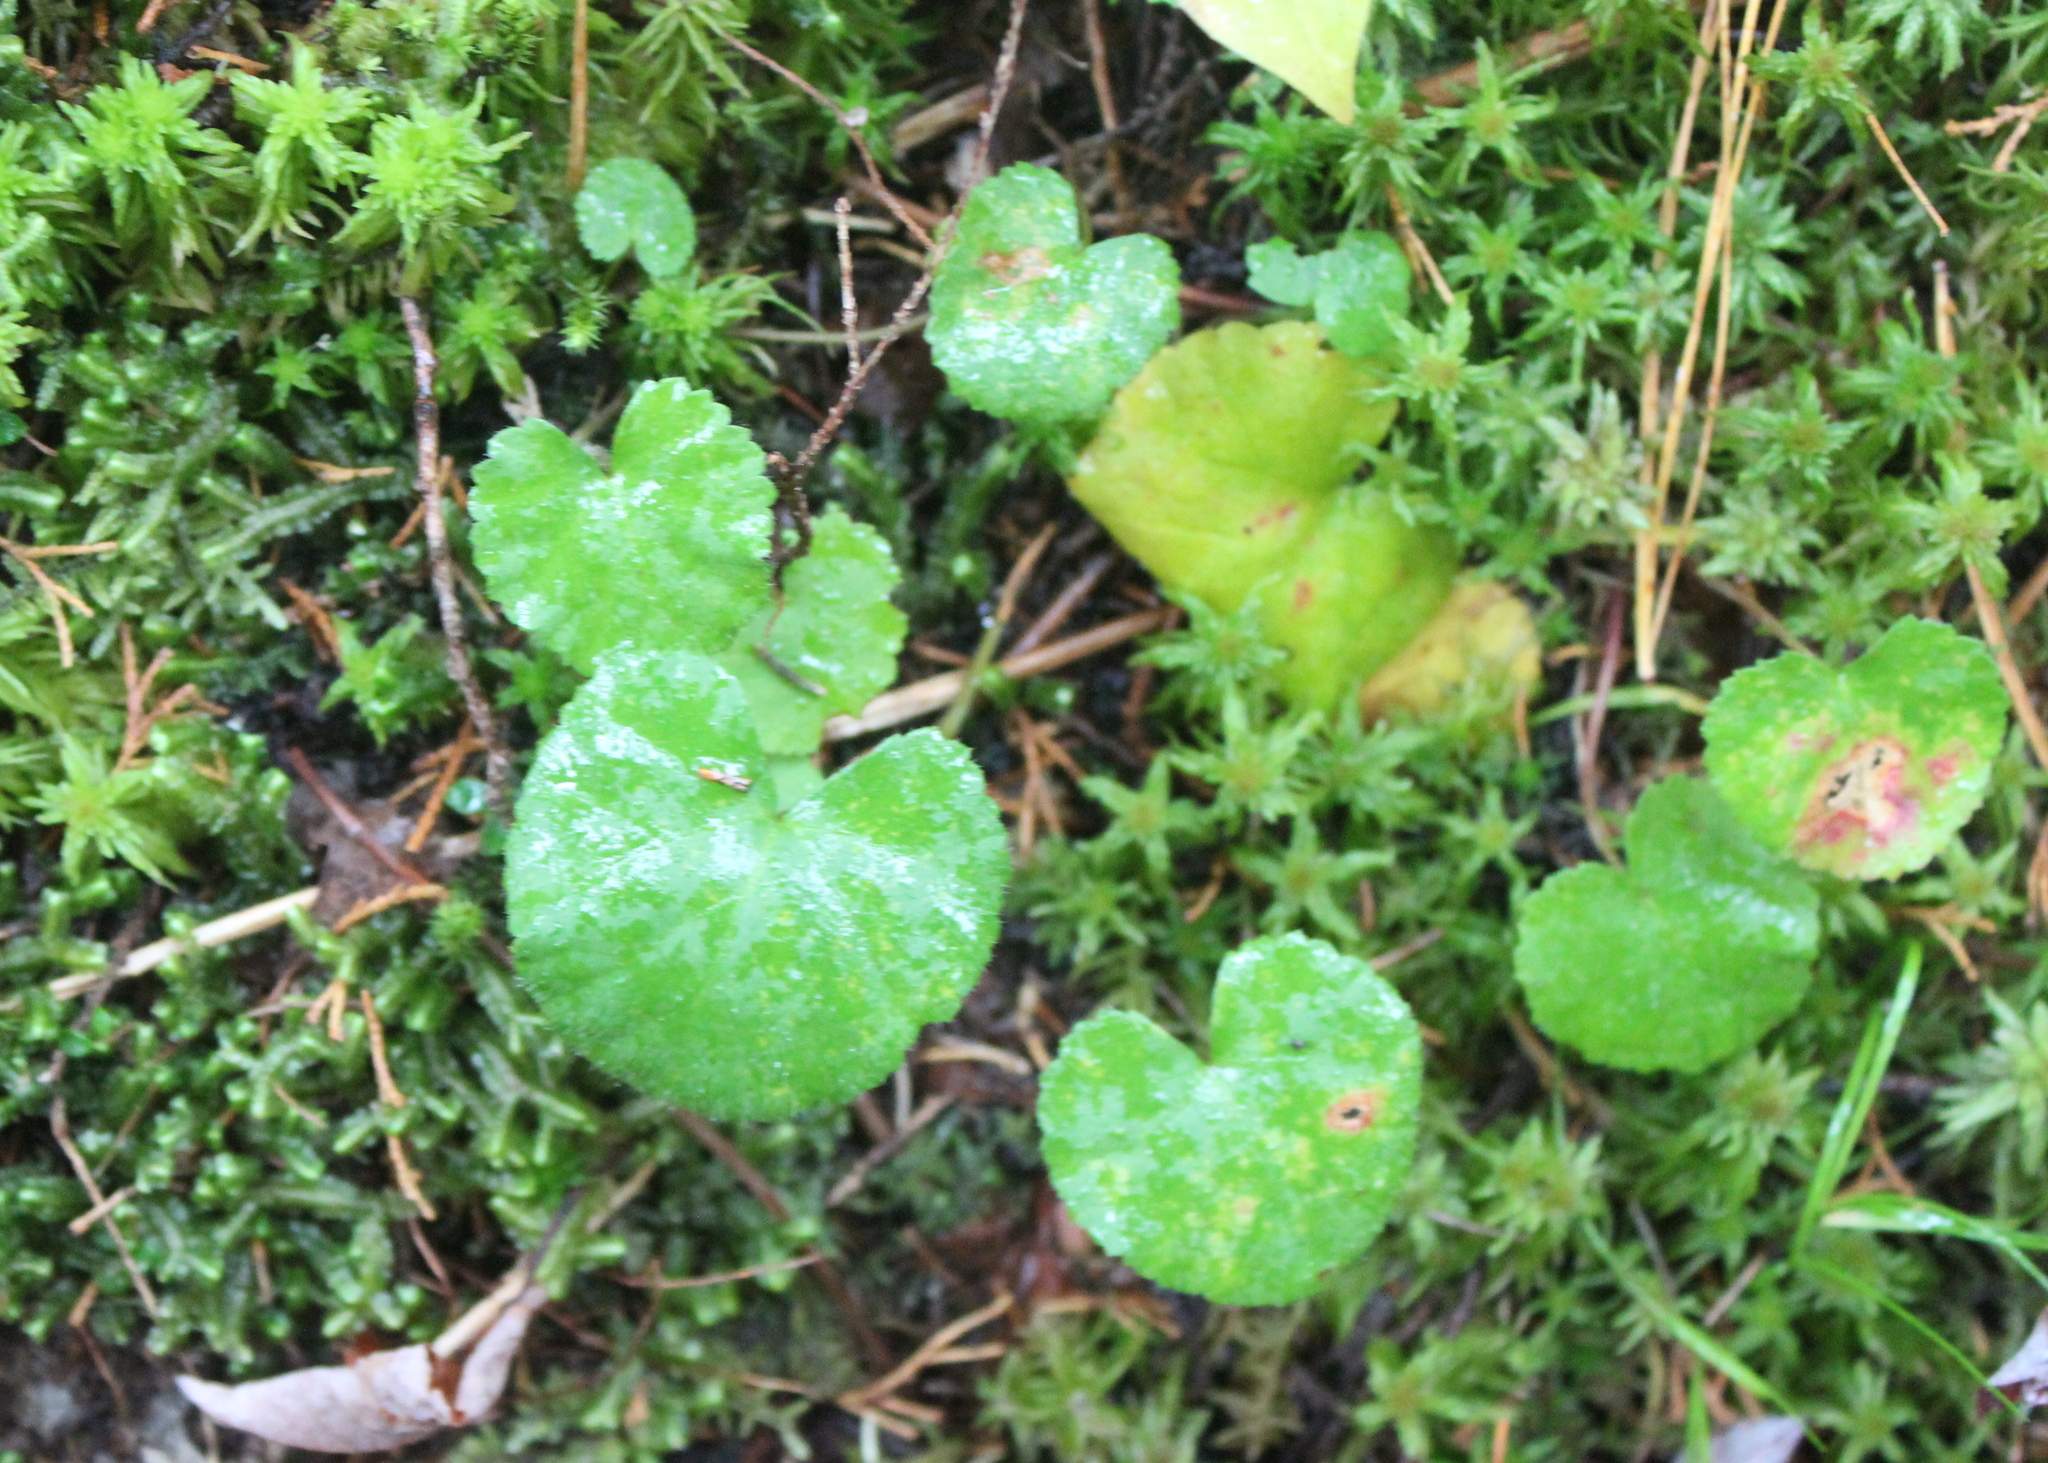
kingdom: Plantae
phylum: Tracheophyta
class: Magnoliopsida
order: Rosales
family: Rosaceae
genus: Dalibarda
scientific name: Dalibarda repens
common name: Dewdrop
